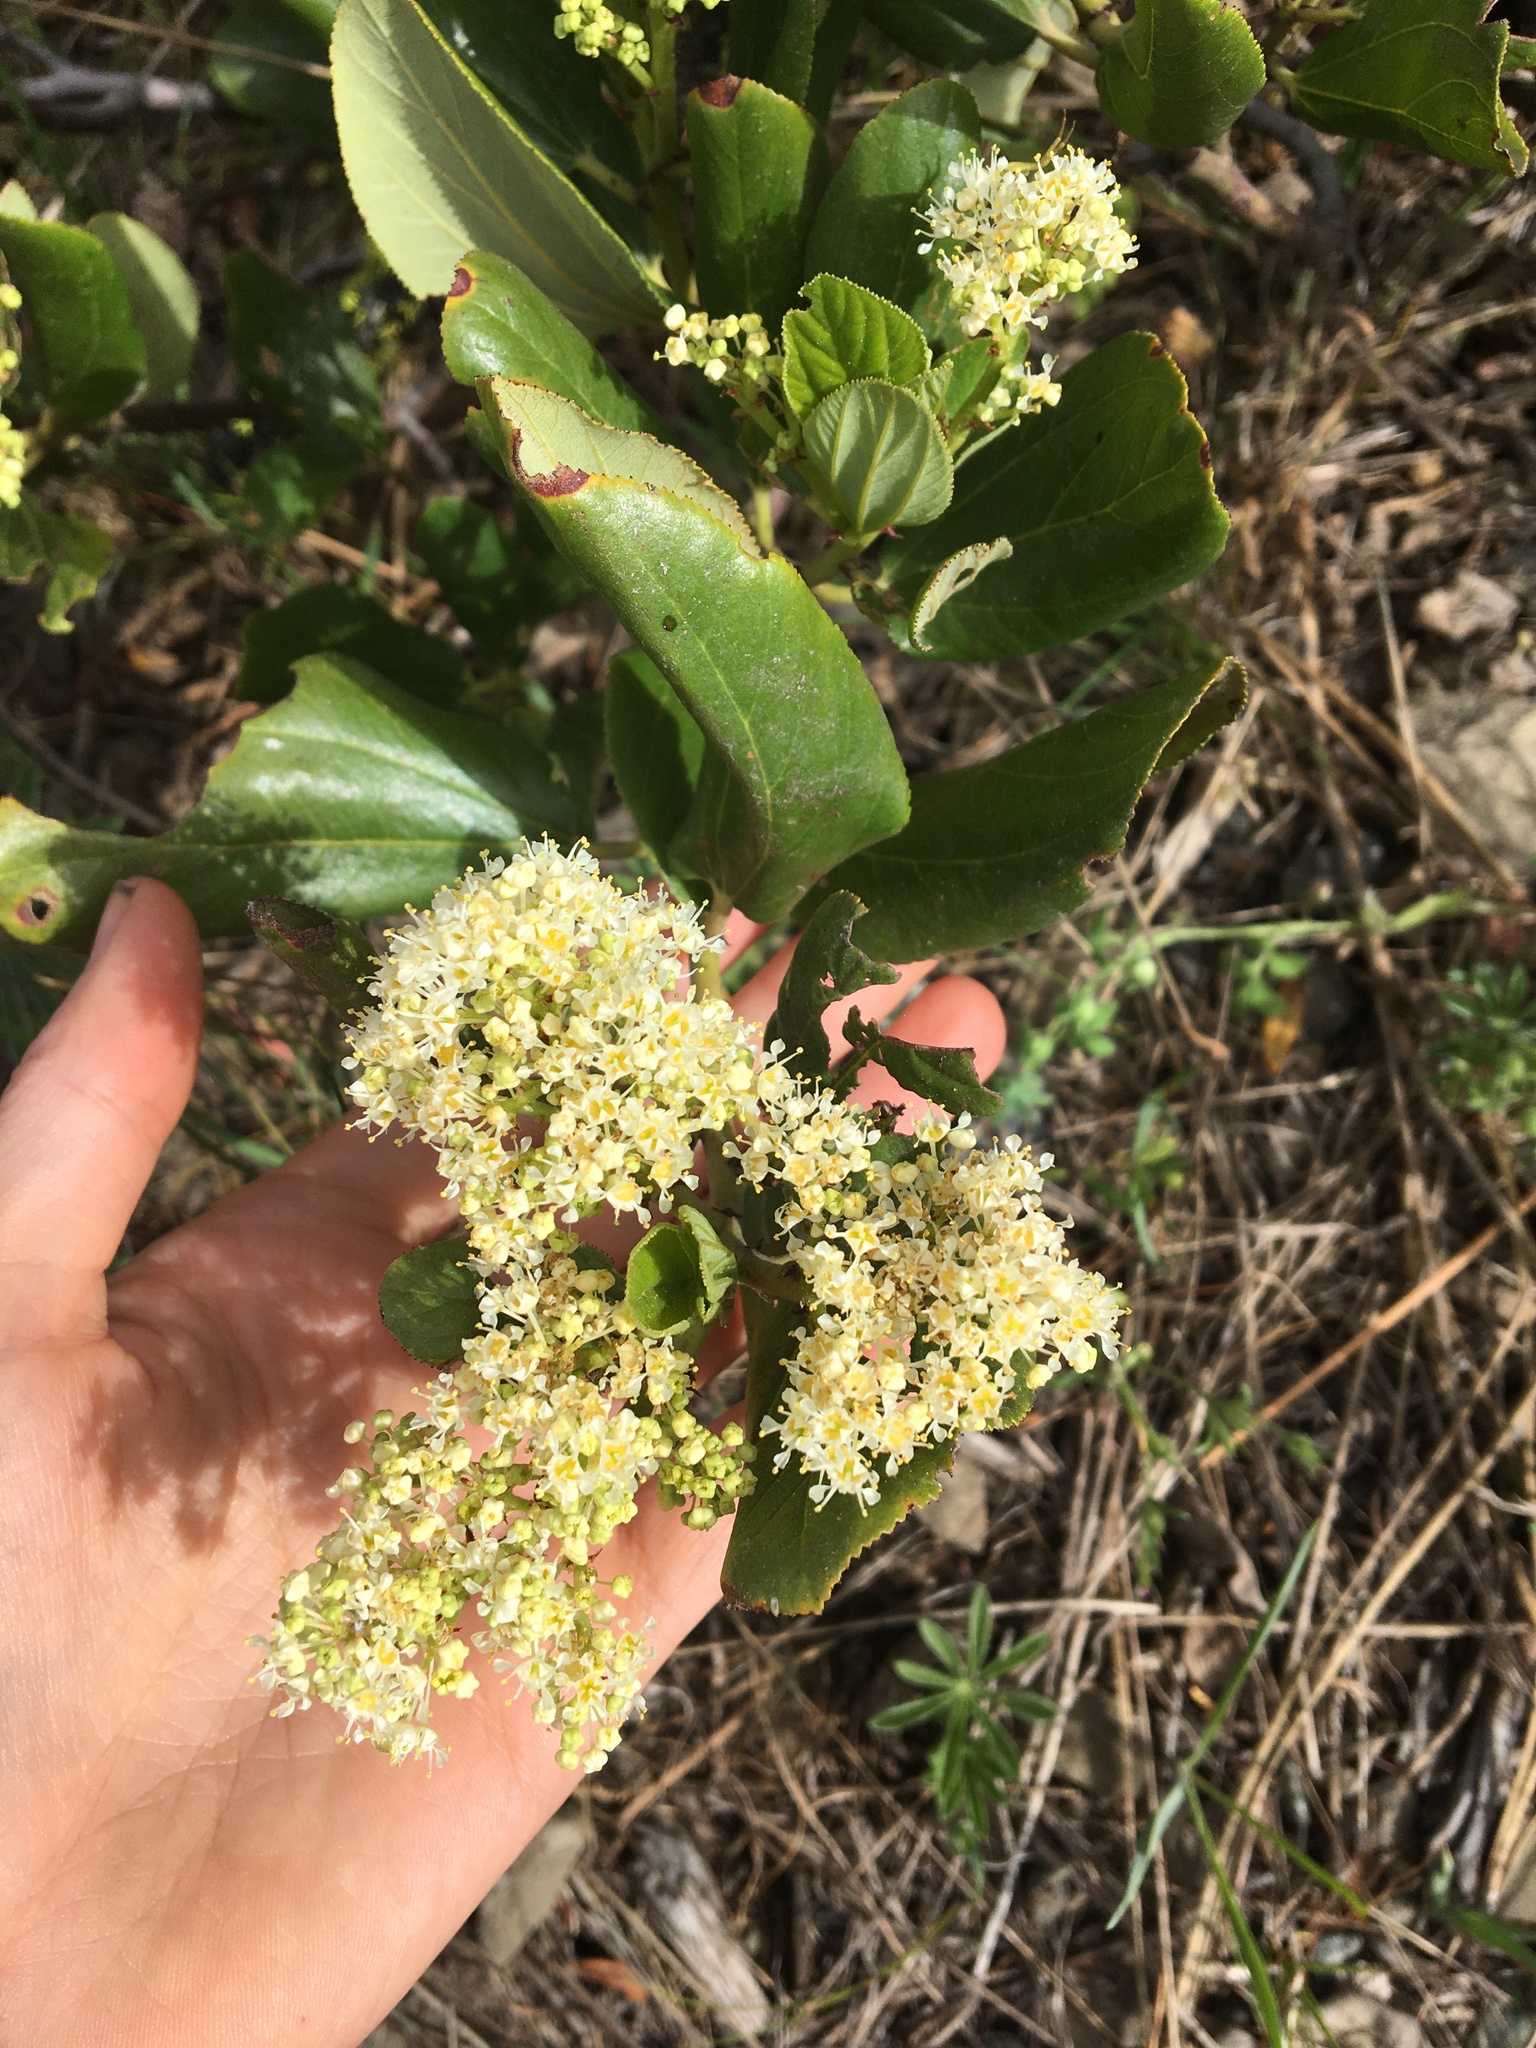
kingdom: Plantae
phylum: Tracheophyta
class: Magnoliopsida
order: Rosales
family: Rhamnaceae
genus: Ceanothus
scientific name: Ceanothus velutinus
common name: Snowbrush
